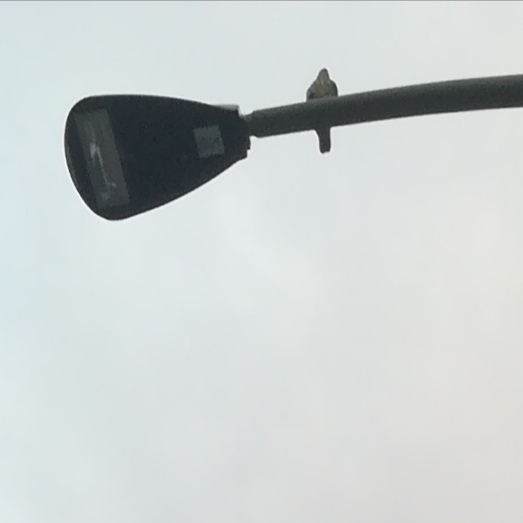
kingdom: Animalia
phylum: Chordata
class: Aves
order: Falconiformes
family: Falconidae
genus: Falco
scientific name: Falco columbarius
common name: Merlin
